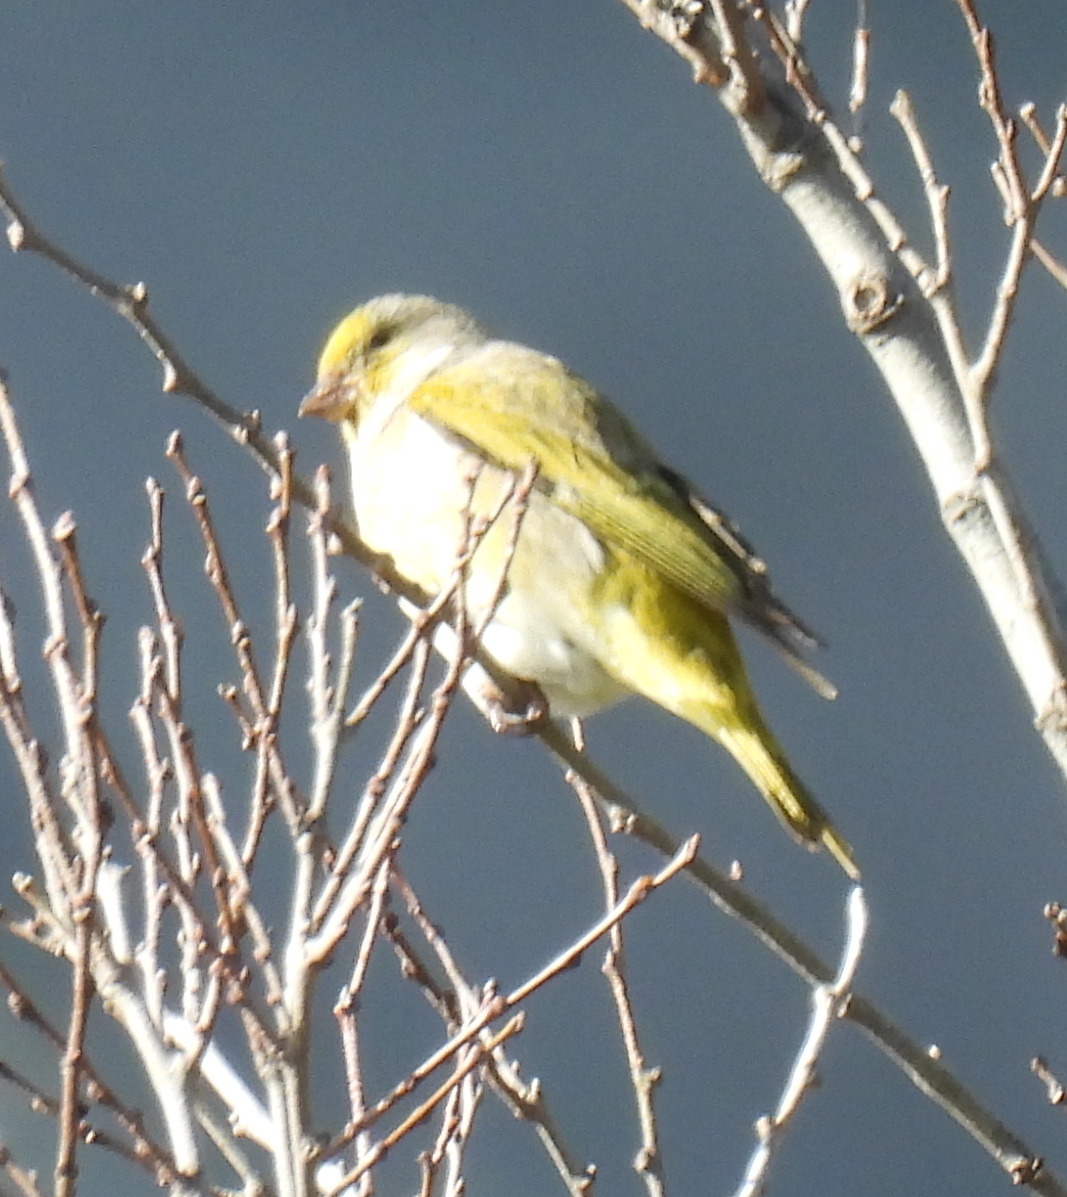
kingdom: Animalia
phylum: Chordata
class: Aves
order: Passeriformes
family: Fringillidae
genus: Serinus
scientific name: Serinus canicollis
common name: Cape canary
